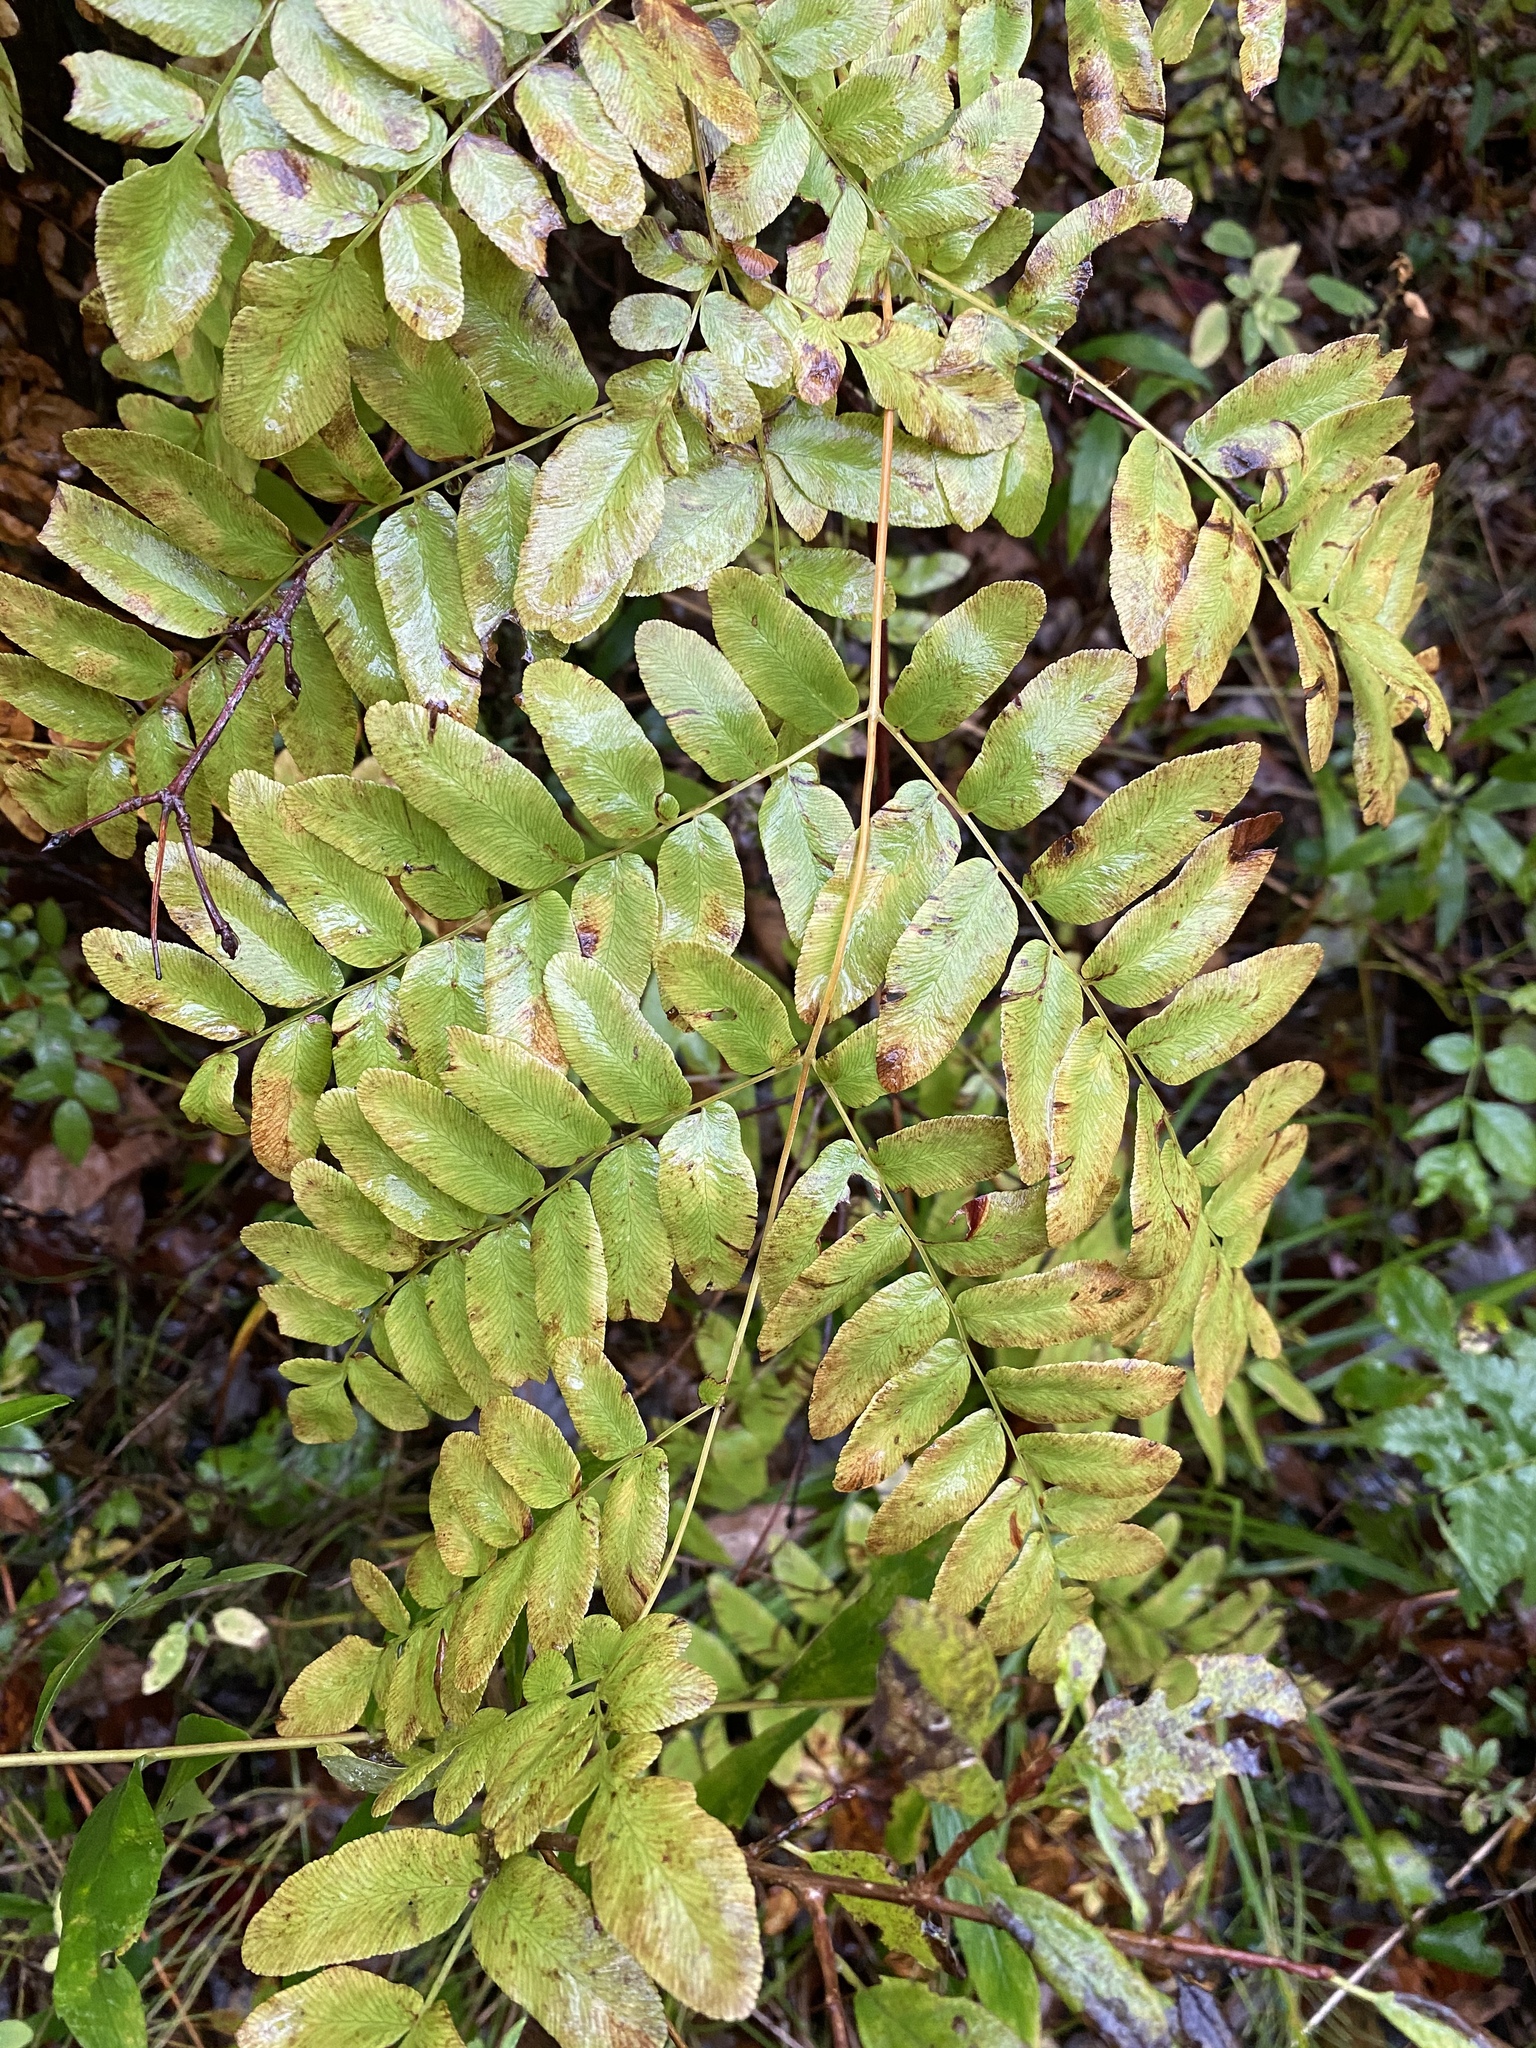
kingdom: Plantae
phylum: Tracheophyta
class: Polypodiopsida
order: Osmundales
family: Osmundaceae
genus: Osmunda
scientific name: Osmunda spectabilis
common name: American royal fern
